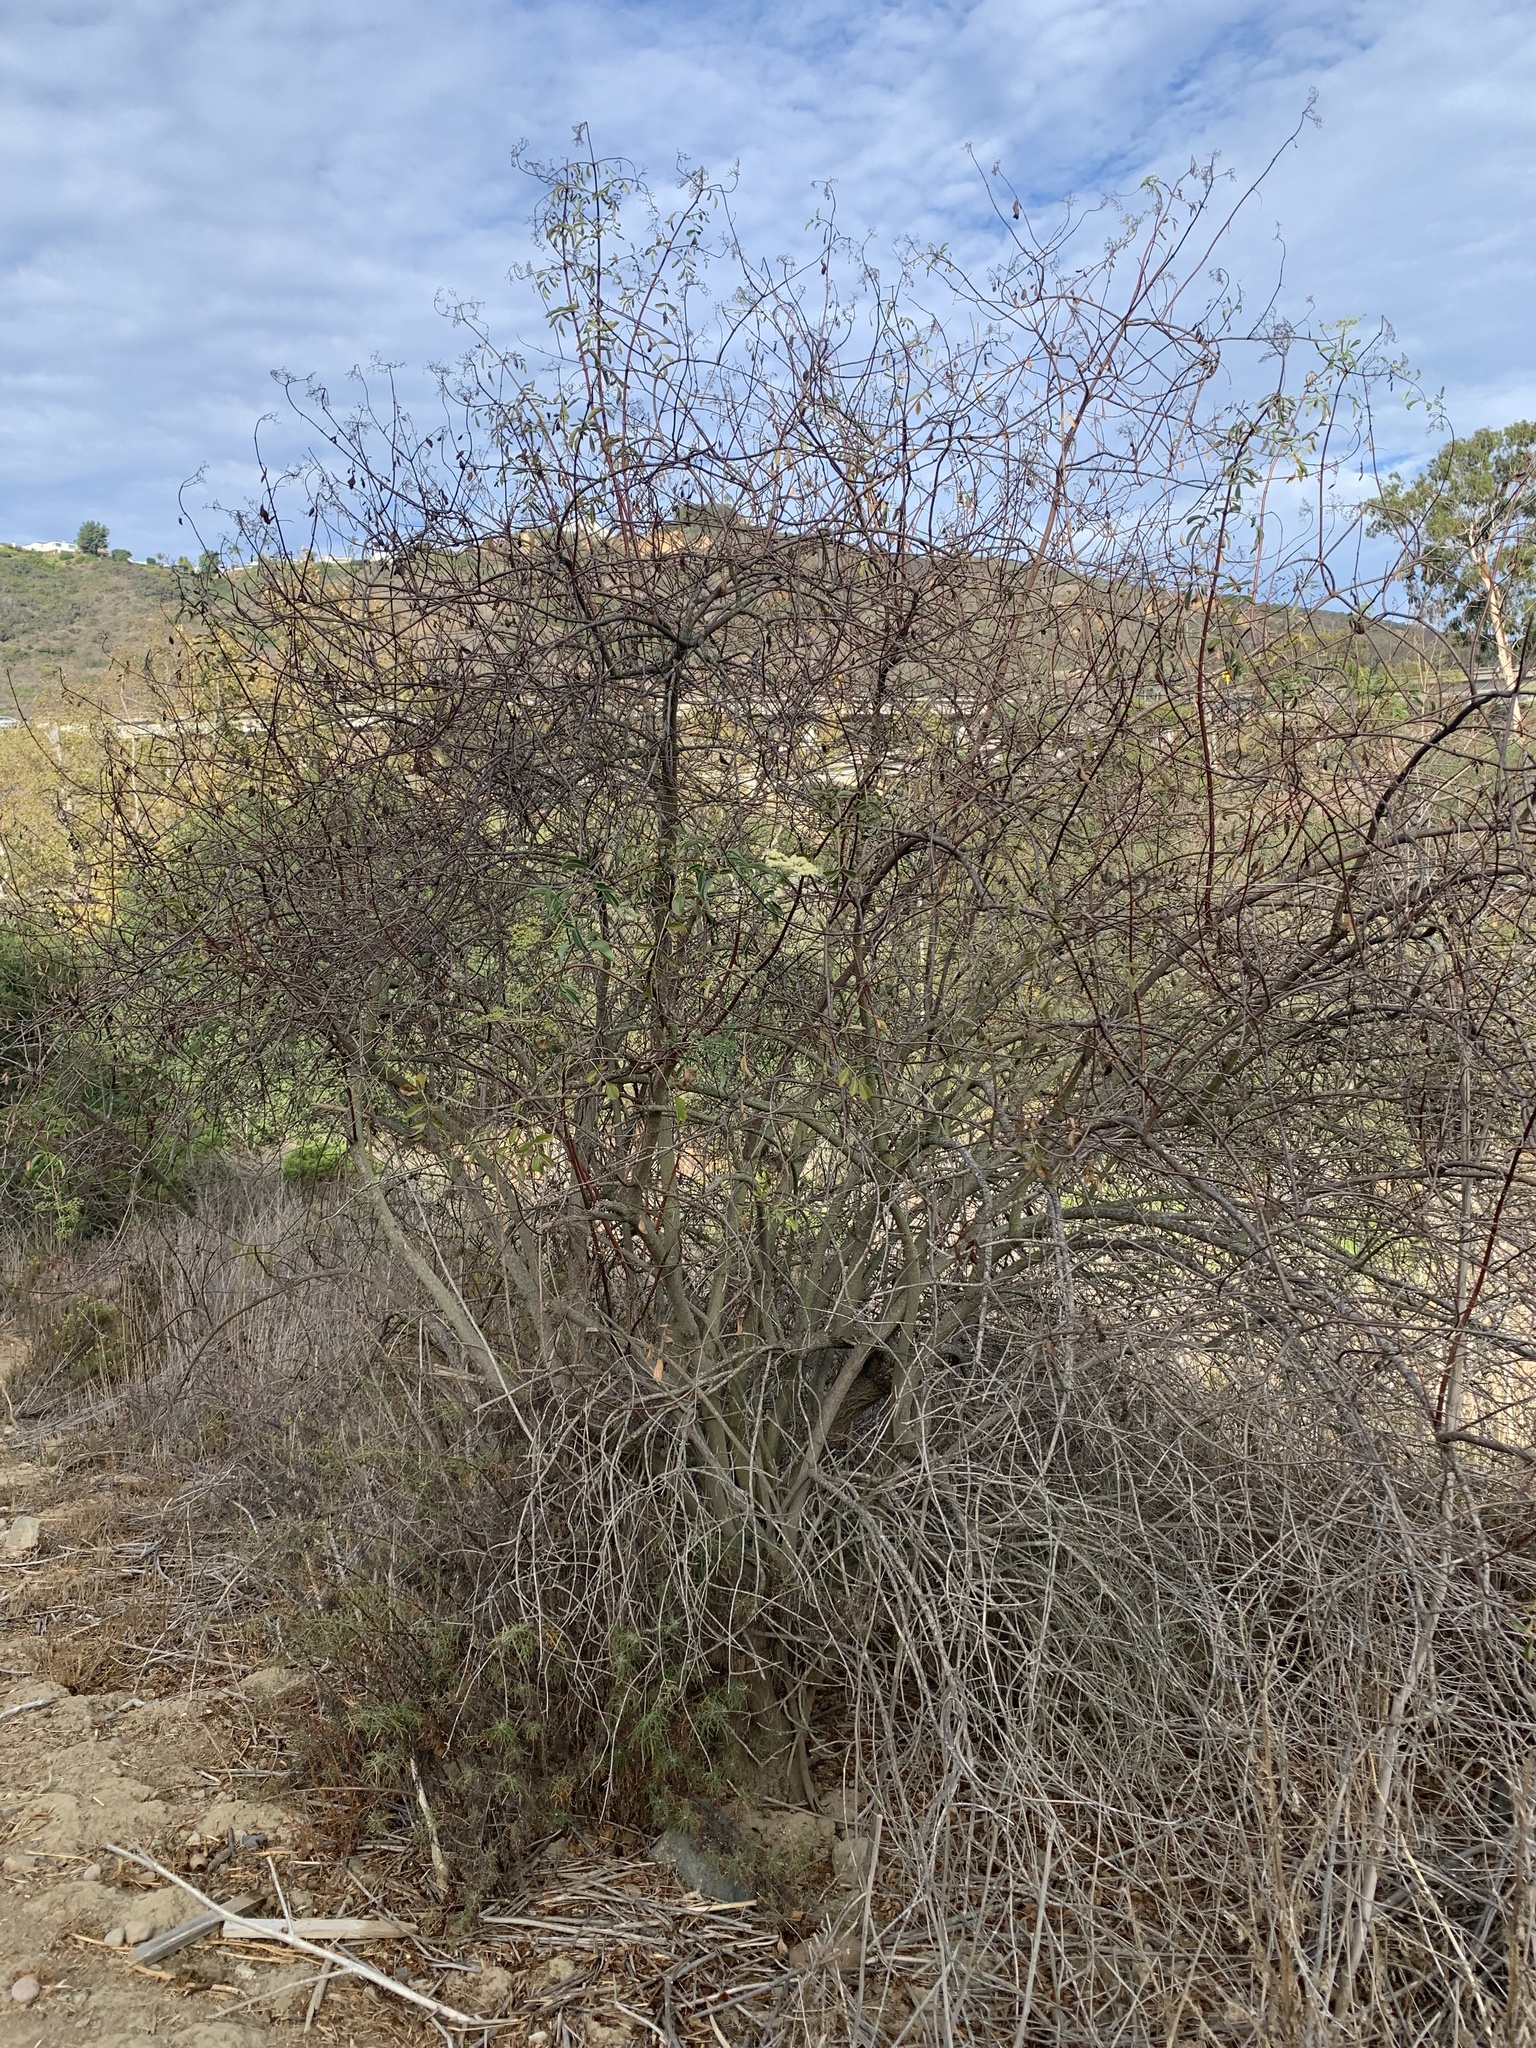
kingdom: Plantae
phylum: Tracheophyta
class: Magnoliopsida
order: Dipsacales
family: Viburnaceae
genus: Sambucus
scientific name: Sambucus cerulea
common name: Blue elder
